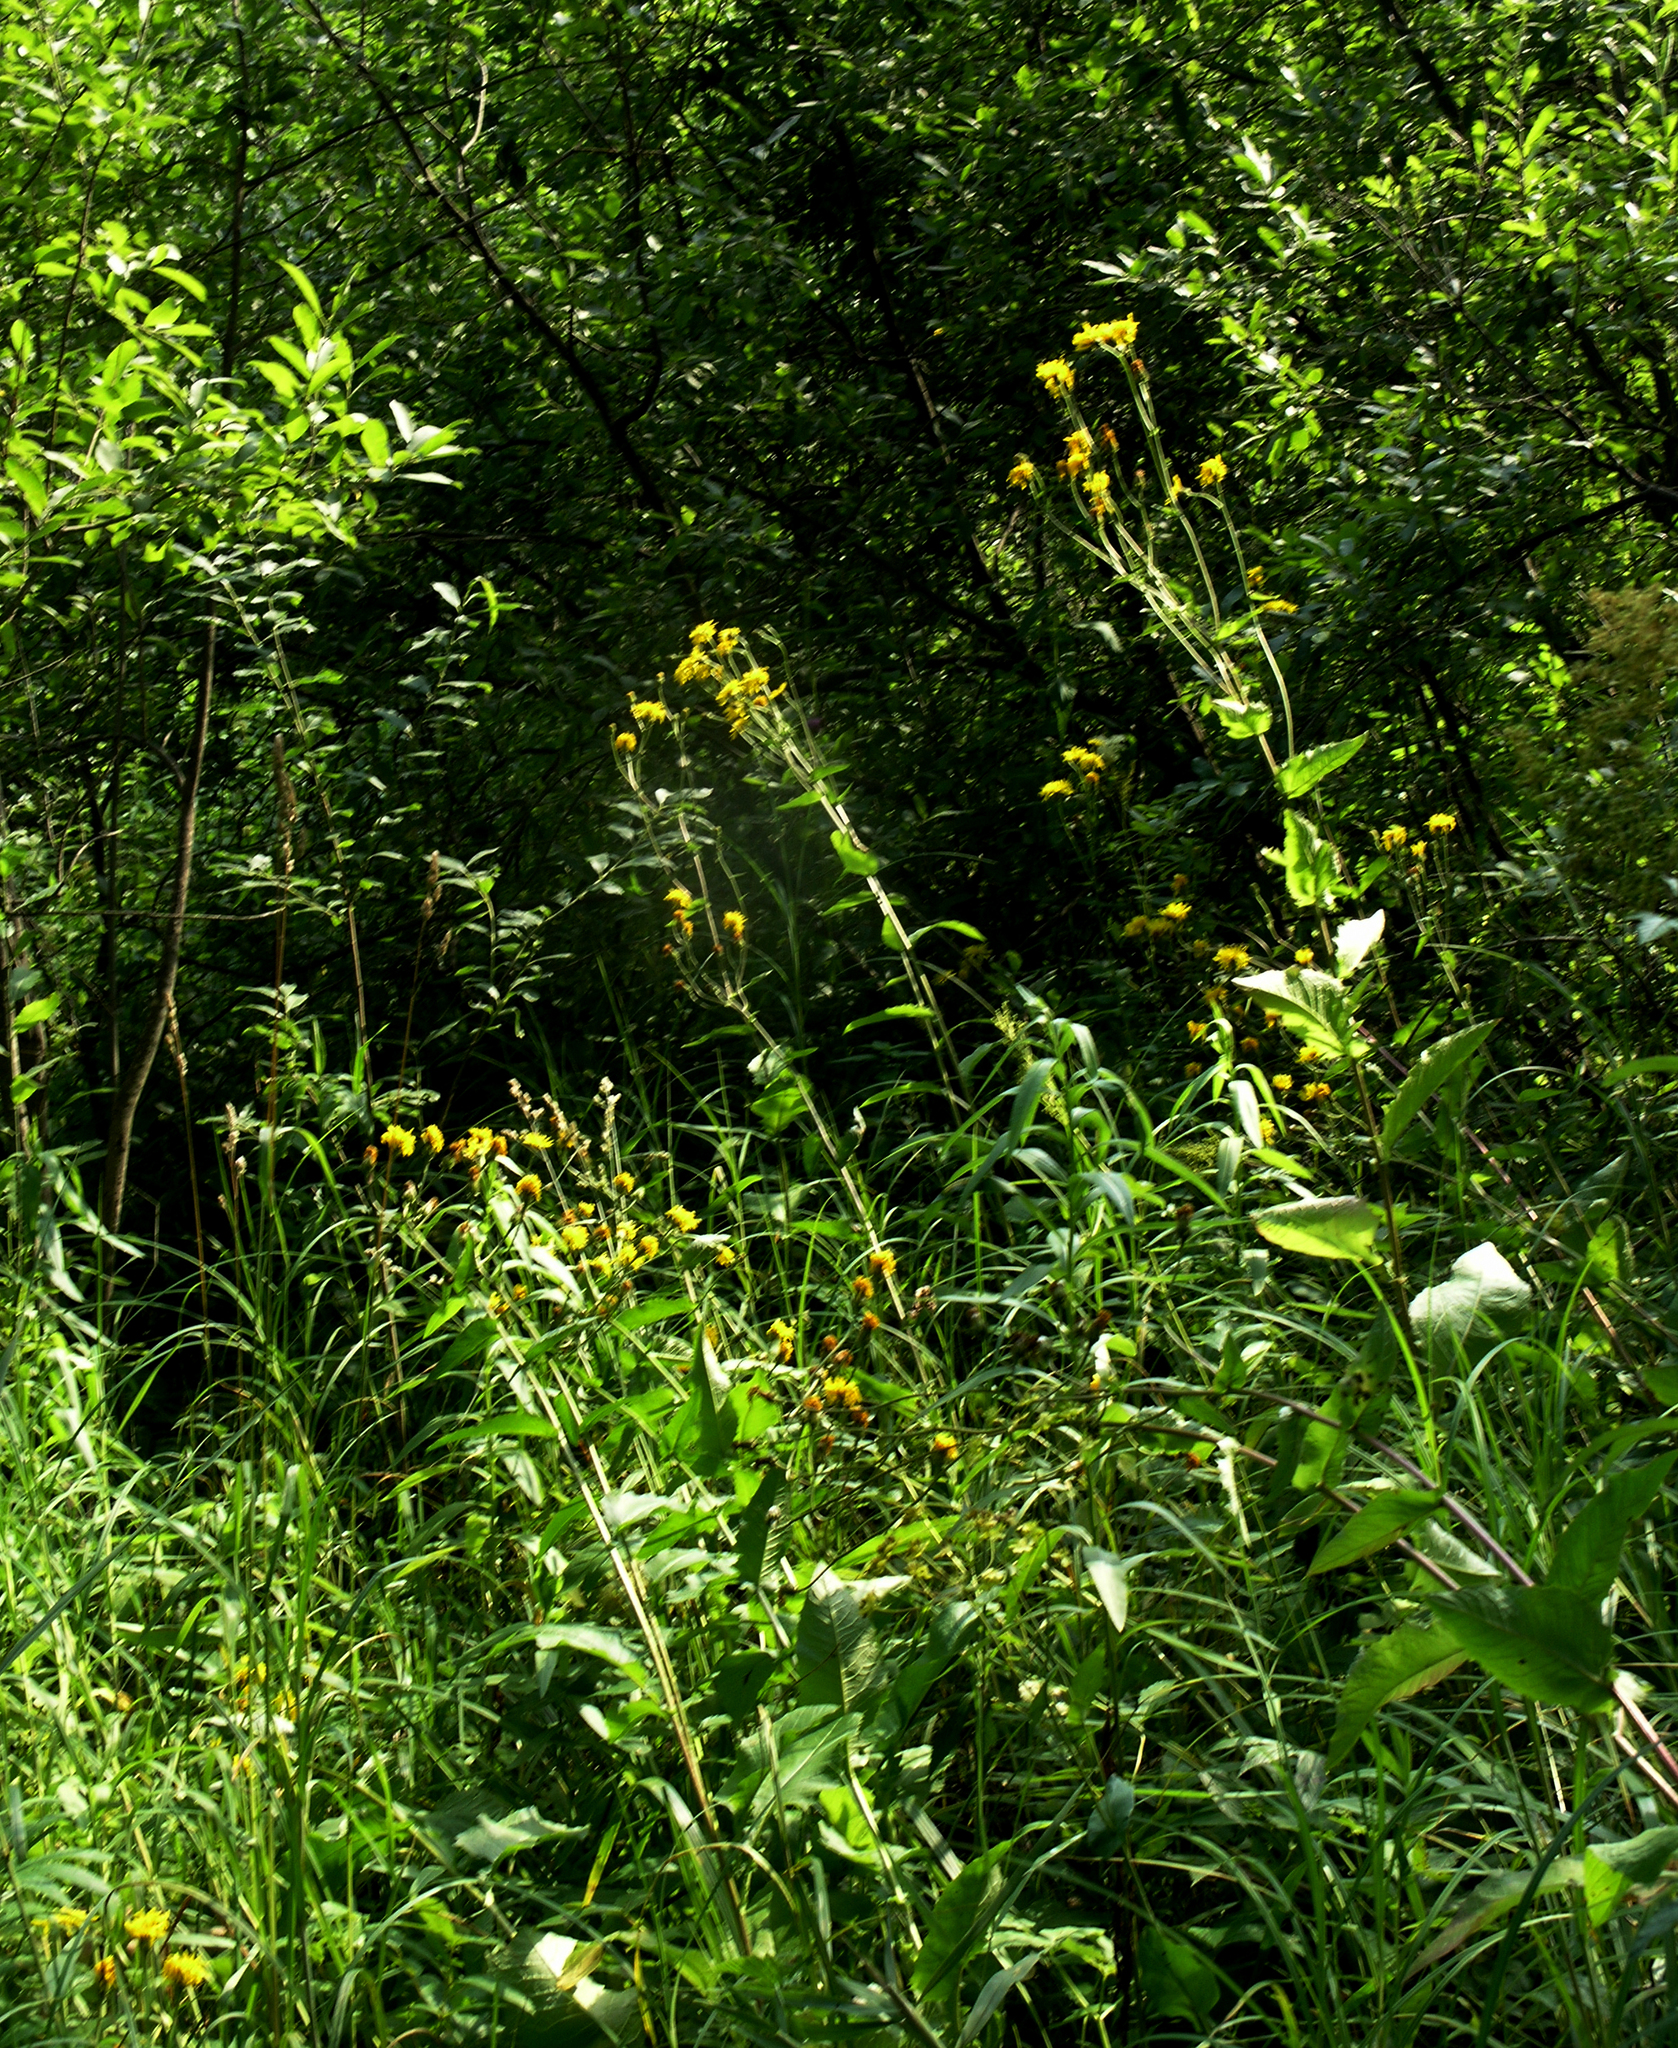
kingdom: Plantae
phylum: Tracheophyta
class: Magnoliopsida
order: Asterales
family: Asteraceae
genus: Crepis
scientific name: Crepis sibirica
